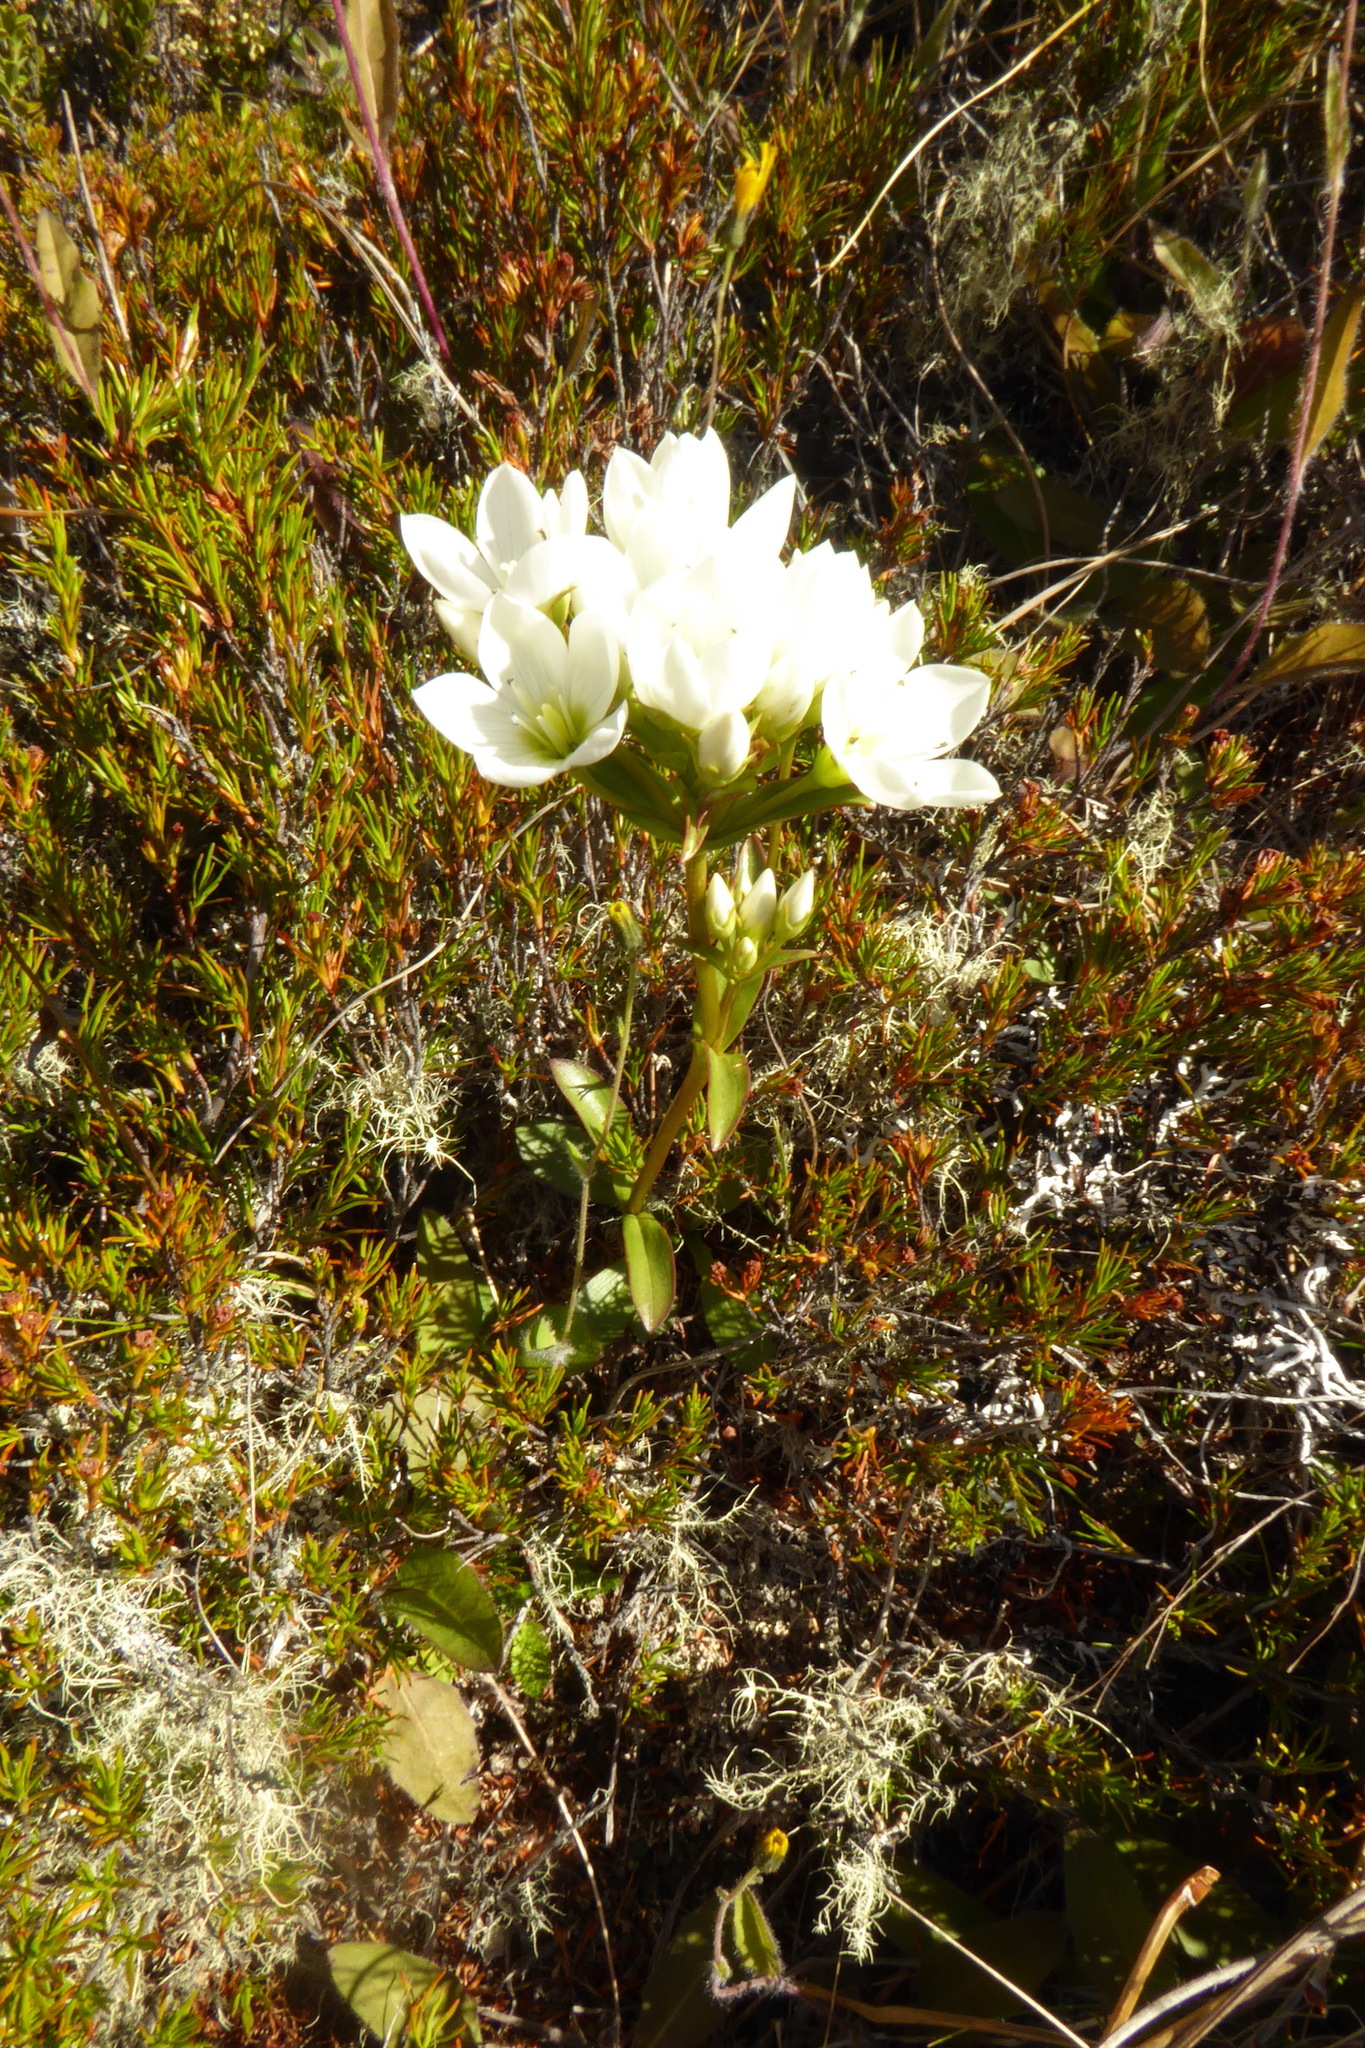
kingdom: Plantae
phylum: Tracheophyta
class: Magnoliopsida
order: Gentianales
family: Gentianaceae
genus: Gentianella
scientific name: Gentianella corymbifera
